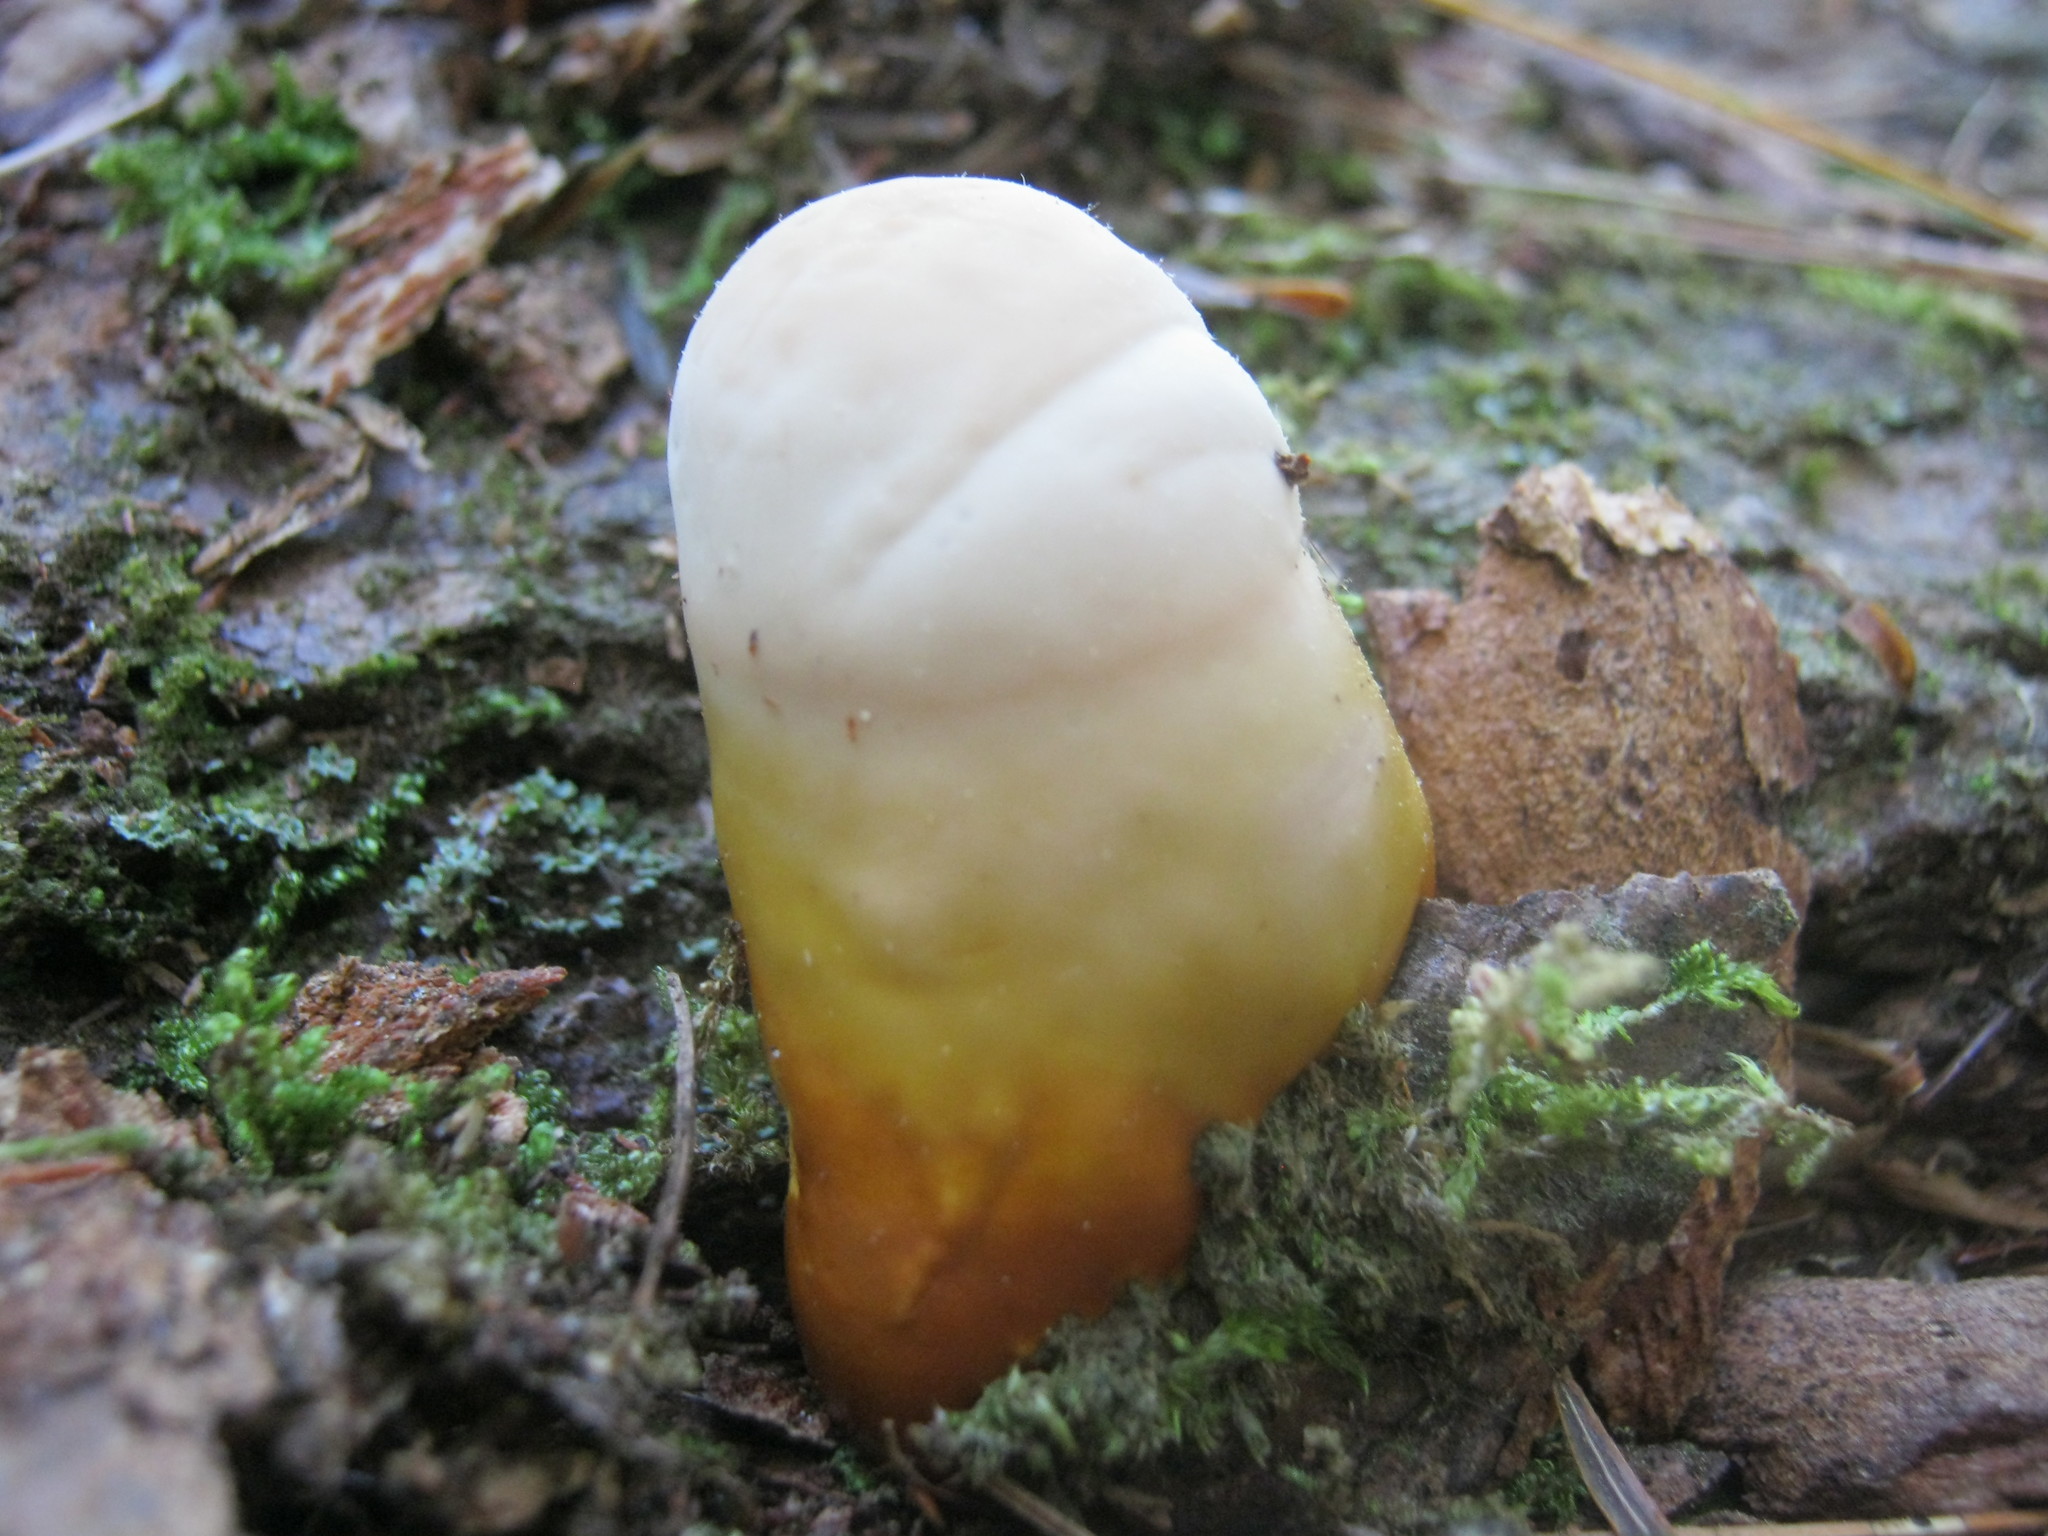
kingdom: Fungi
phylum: Basidiomycota
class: Agaricomycetes
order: Polyporales
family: Polyporaceae
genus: Ganoderma
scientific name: Ganoderma tsugae
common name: Hemlock varnish shelf
